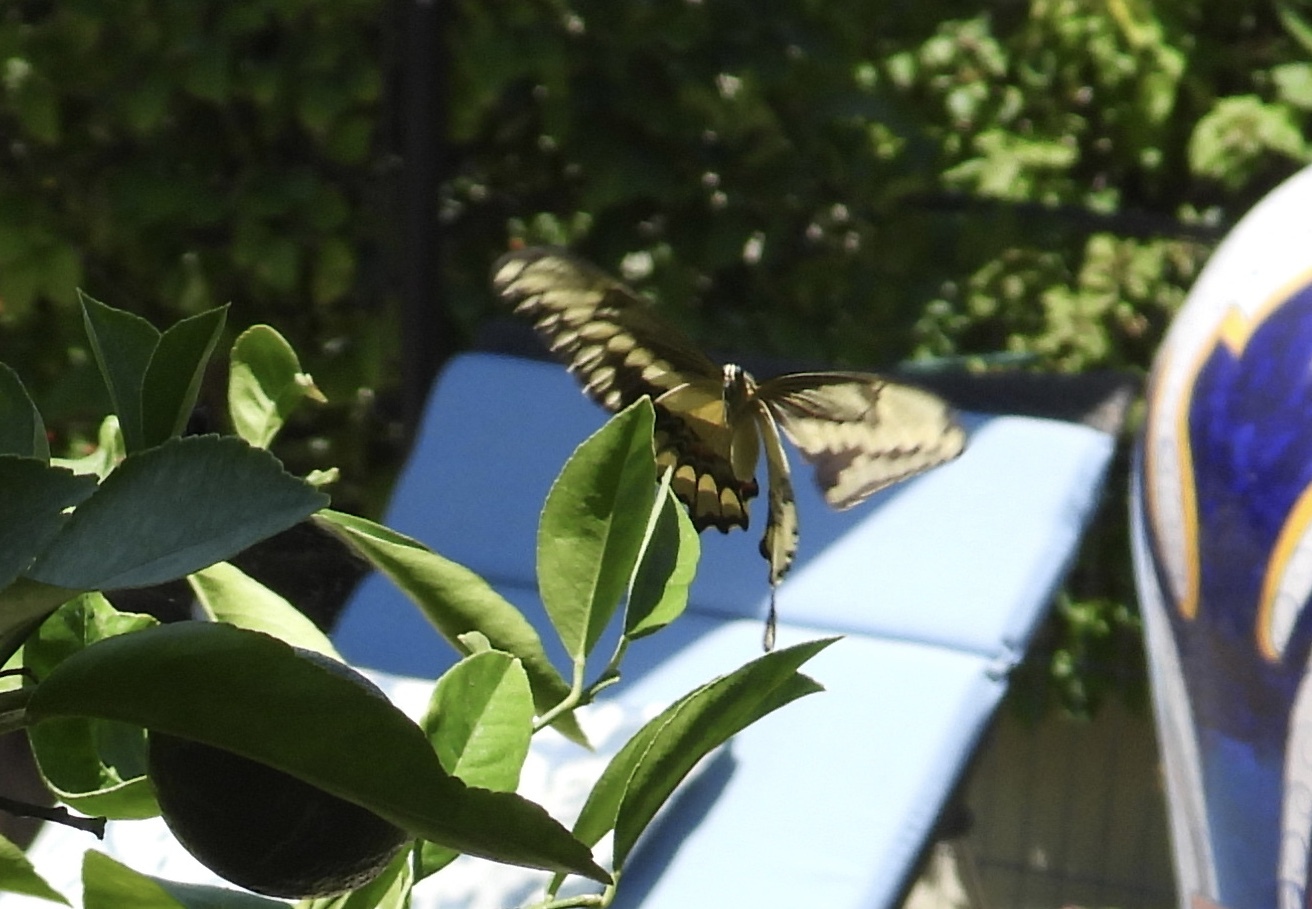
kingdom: Animalia
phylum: Arthropoda
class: Insecta
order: Lepidoptera
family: Papilionidae
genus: Papilio
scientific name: Papilio rumiko
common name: Western giant swallowtail
